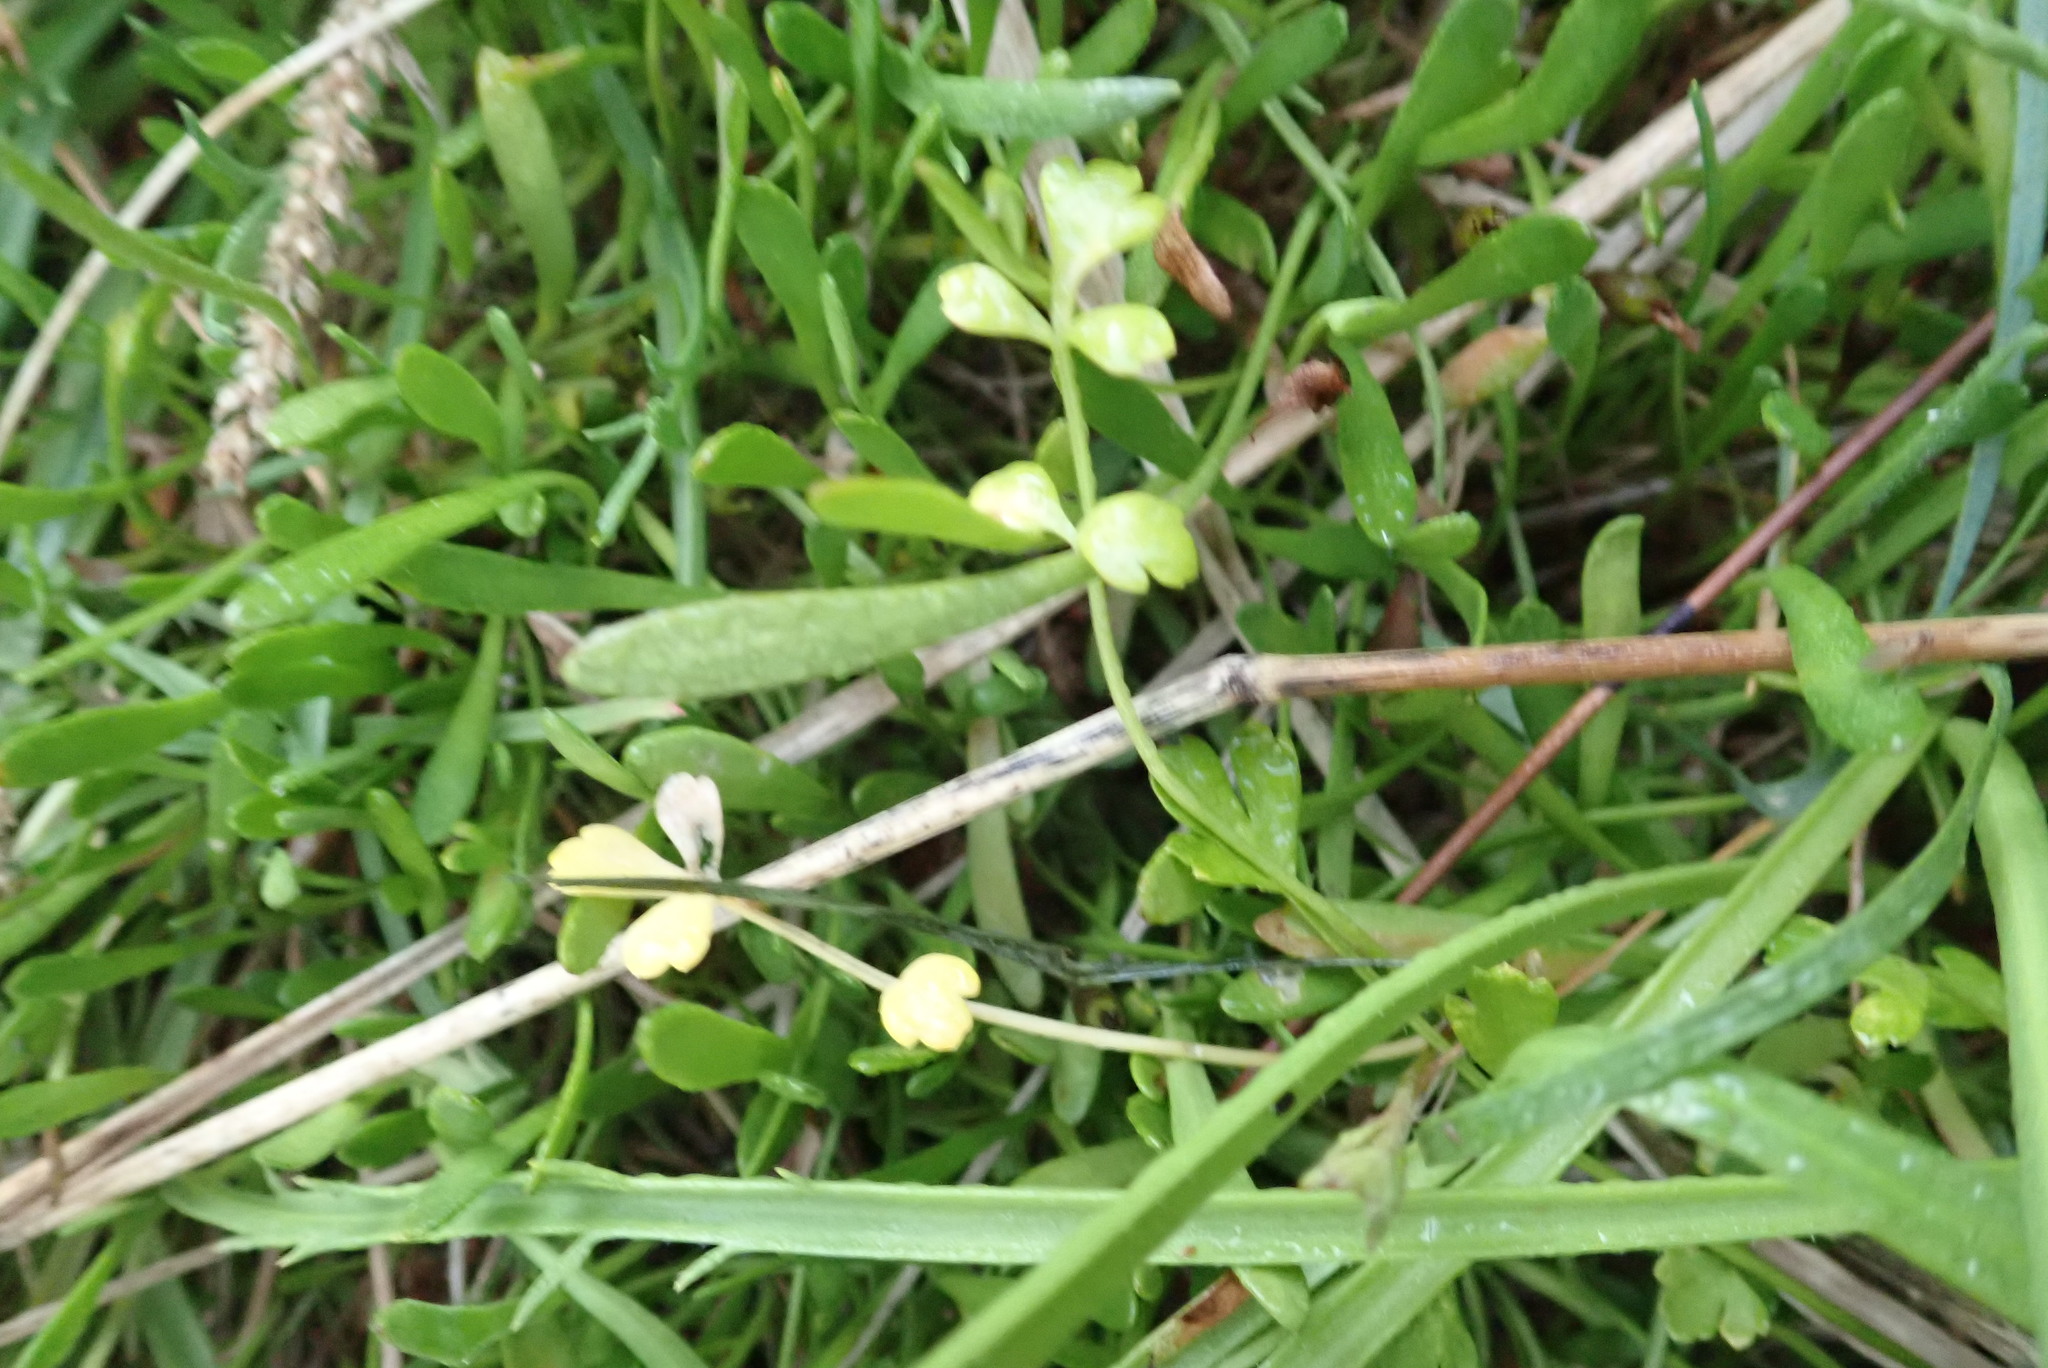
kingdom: Plantae
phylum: Tracheophyta
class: Magnoliopsida
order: Apiales
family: Apiaceae
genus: Apium
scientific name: Apium prostratum
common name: Prostrate marshwort
